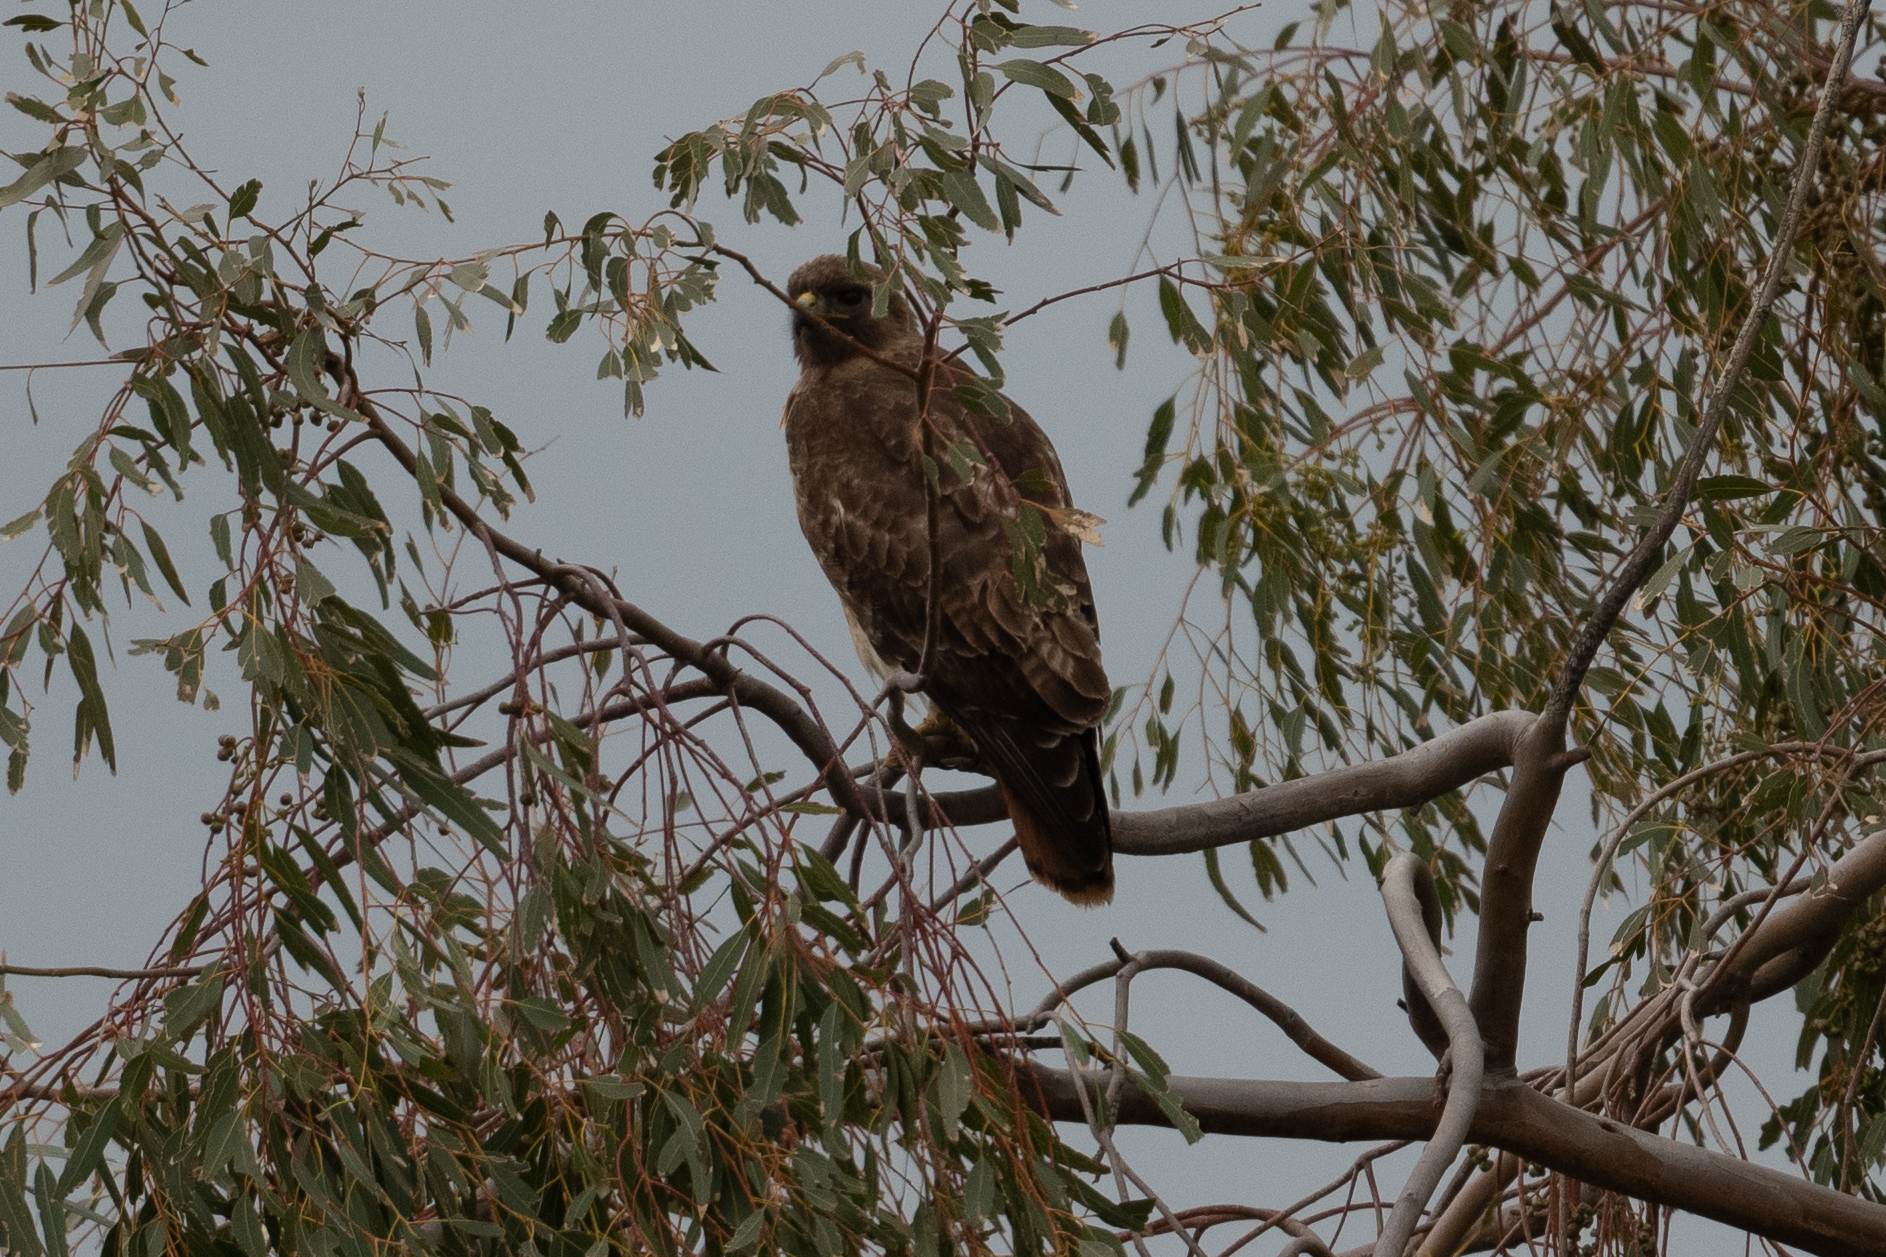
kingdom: Animalia
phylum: Chordata
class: Aves
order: Accipitriformes
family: Accipitridae
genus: Buteo
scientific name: Buteo jamaicensis
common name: Red-tailed hawk
